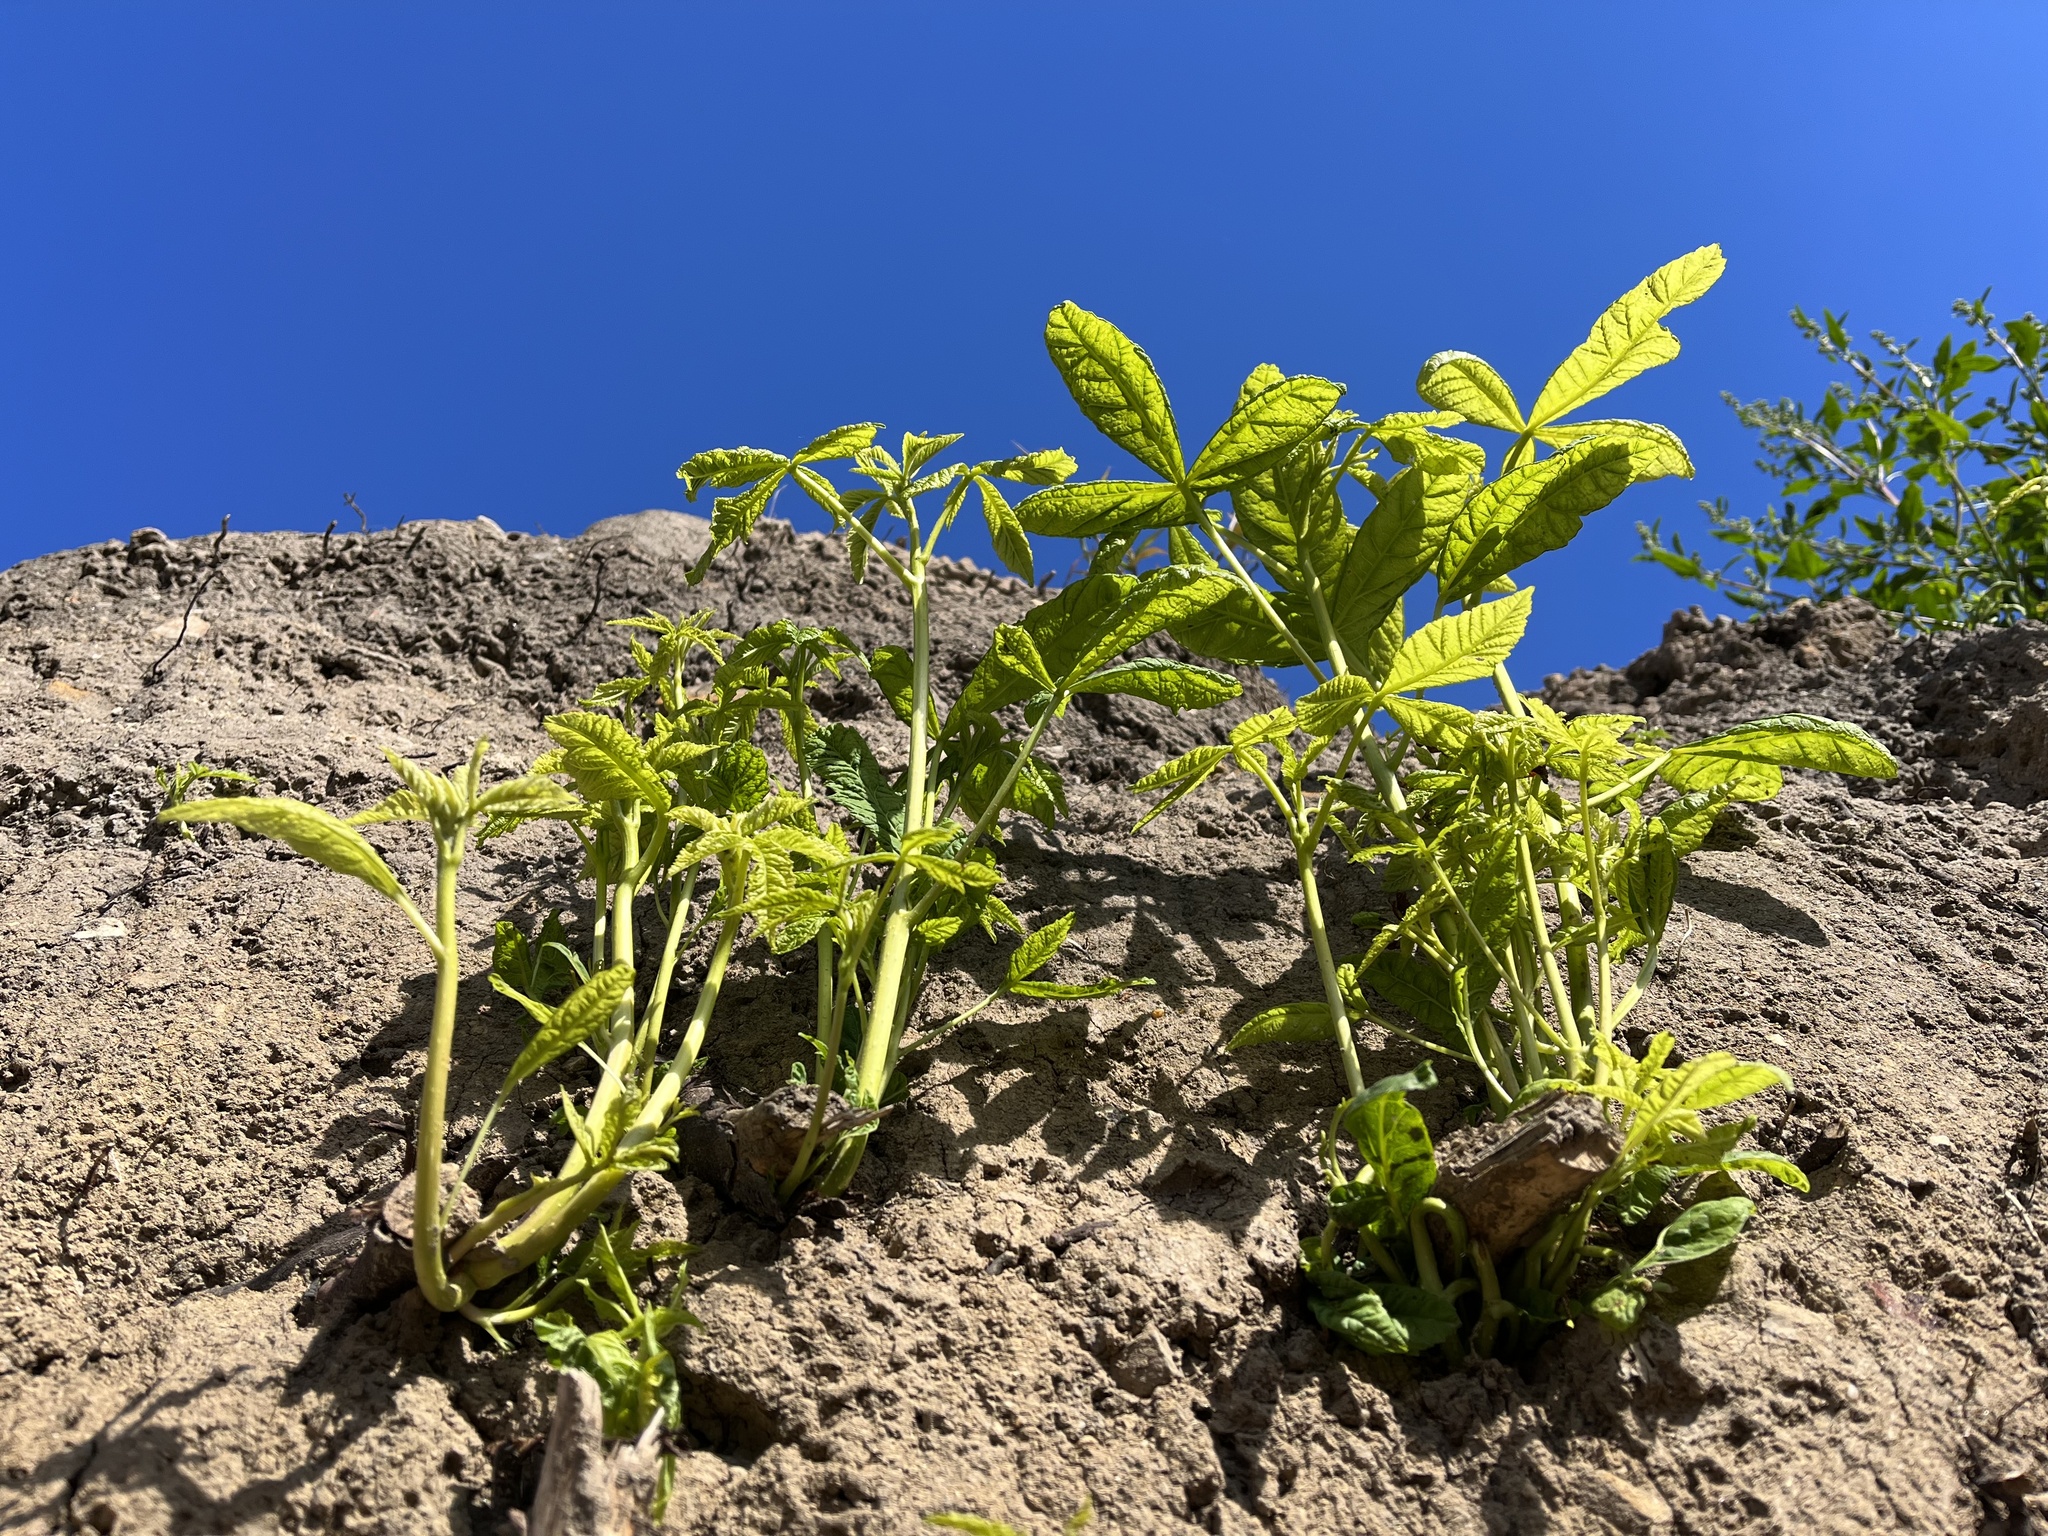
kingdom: Plantae
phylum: Tracheophyta
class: Magnoliopsida
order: Sapindales
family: Sapindaceae
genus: Aesculus
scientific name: Aesculus hippocastanum
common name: Horse-chestnut
